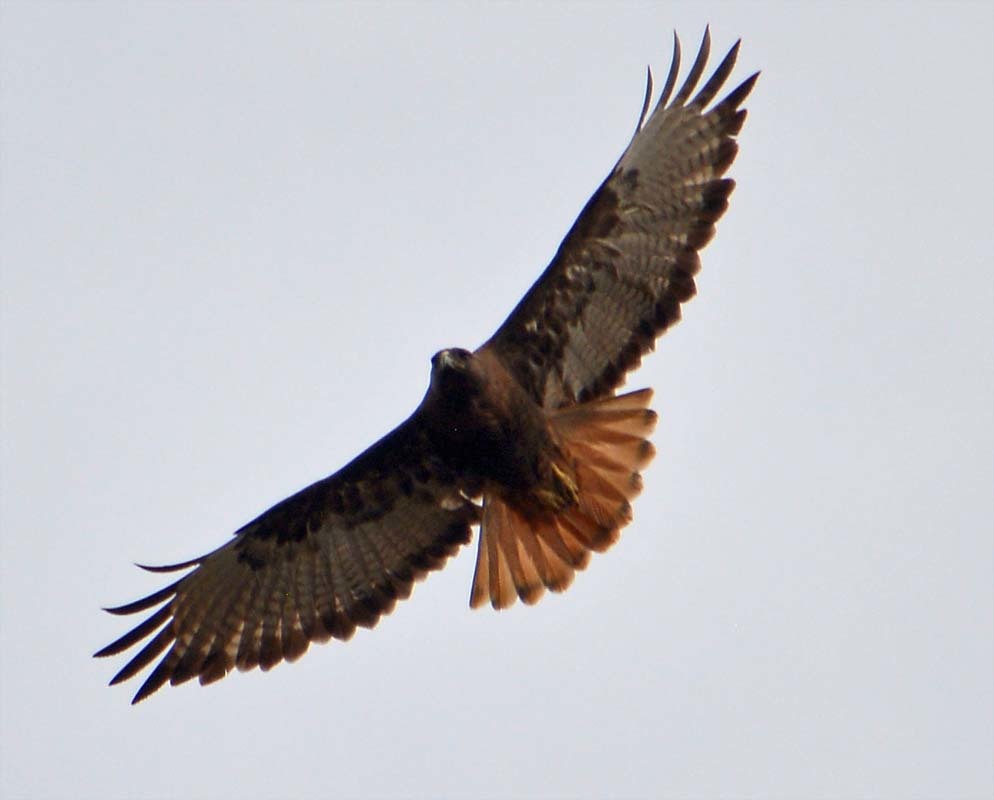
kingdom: Animalia
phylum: Chordata
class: Aves
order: Accipitriformes
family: Accipitridae
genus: Buteo
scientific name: Buteo jamaicensis
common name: Red-tailed hawk
